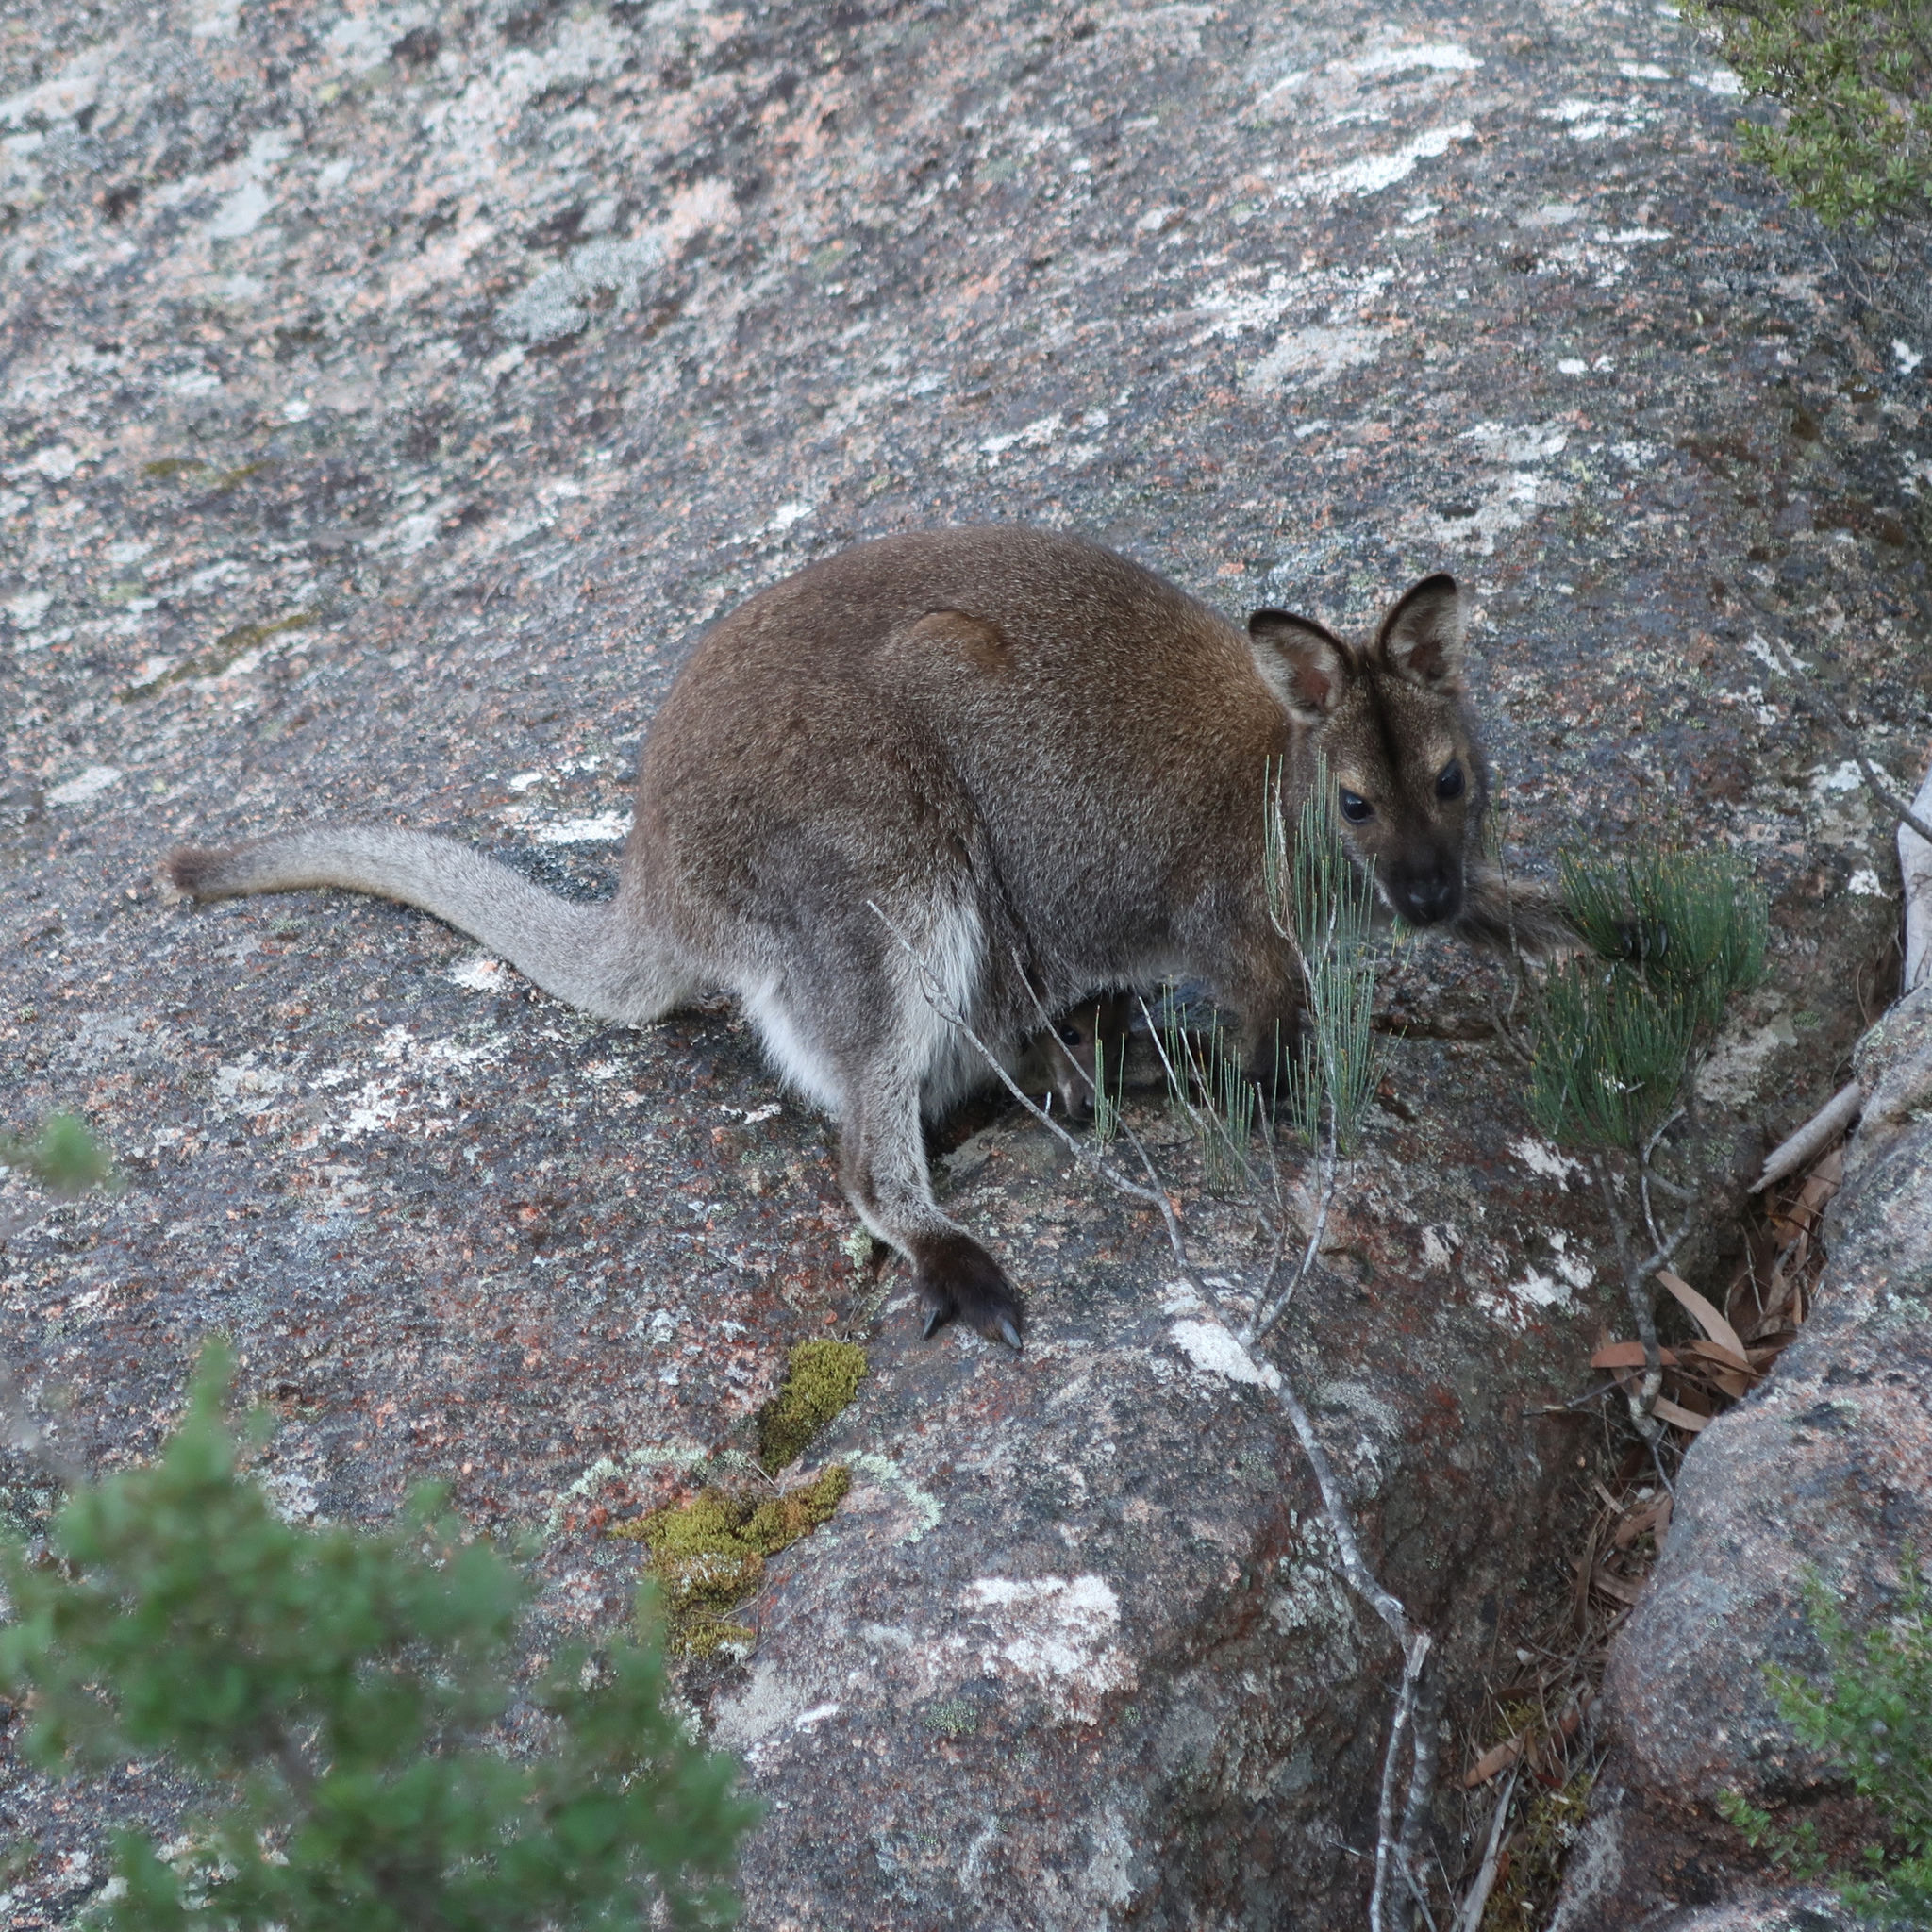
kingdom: Animalia
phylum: Chordata
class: Mammalia
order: Diprotodontia
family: Macropodidae
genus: Notamacropus
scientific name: Notamacropus rufogriseus
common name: Red-necked wallaby
